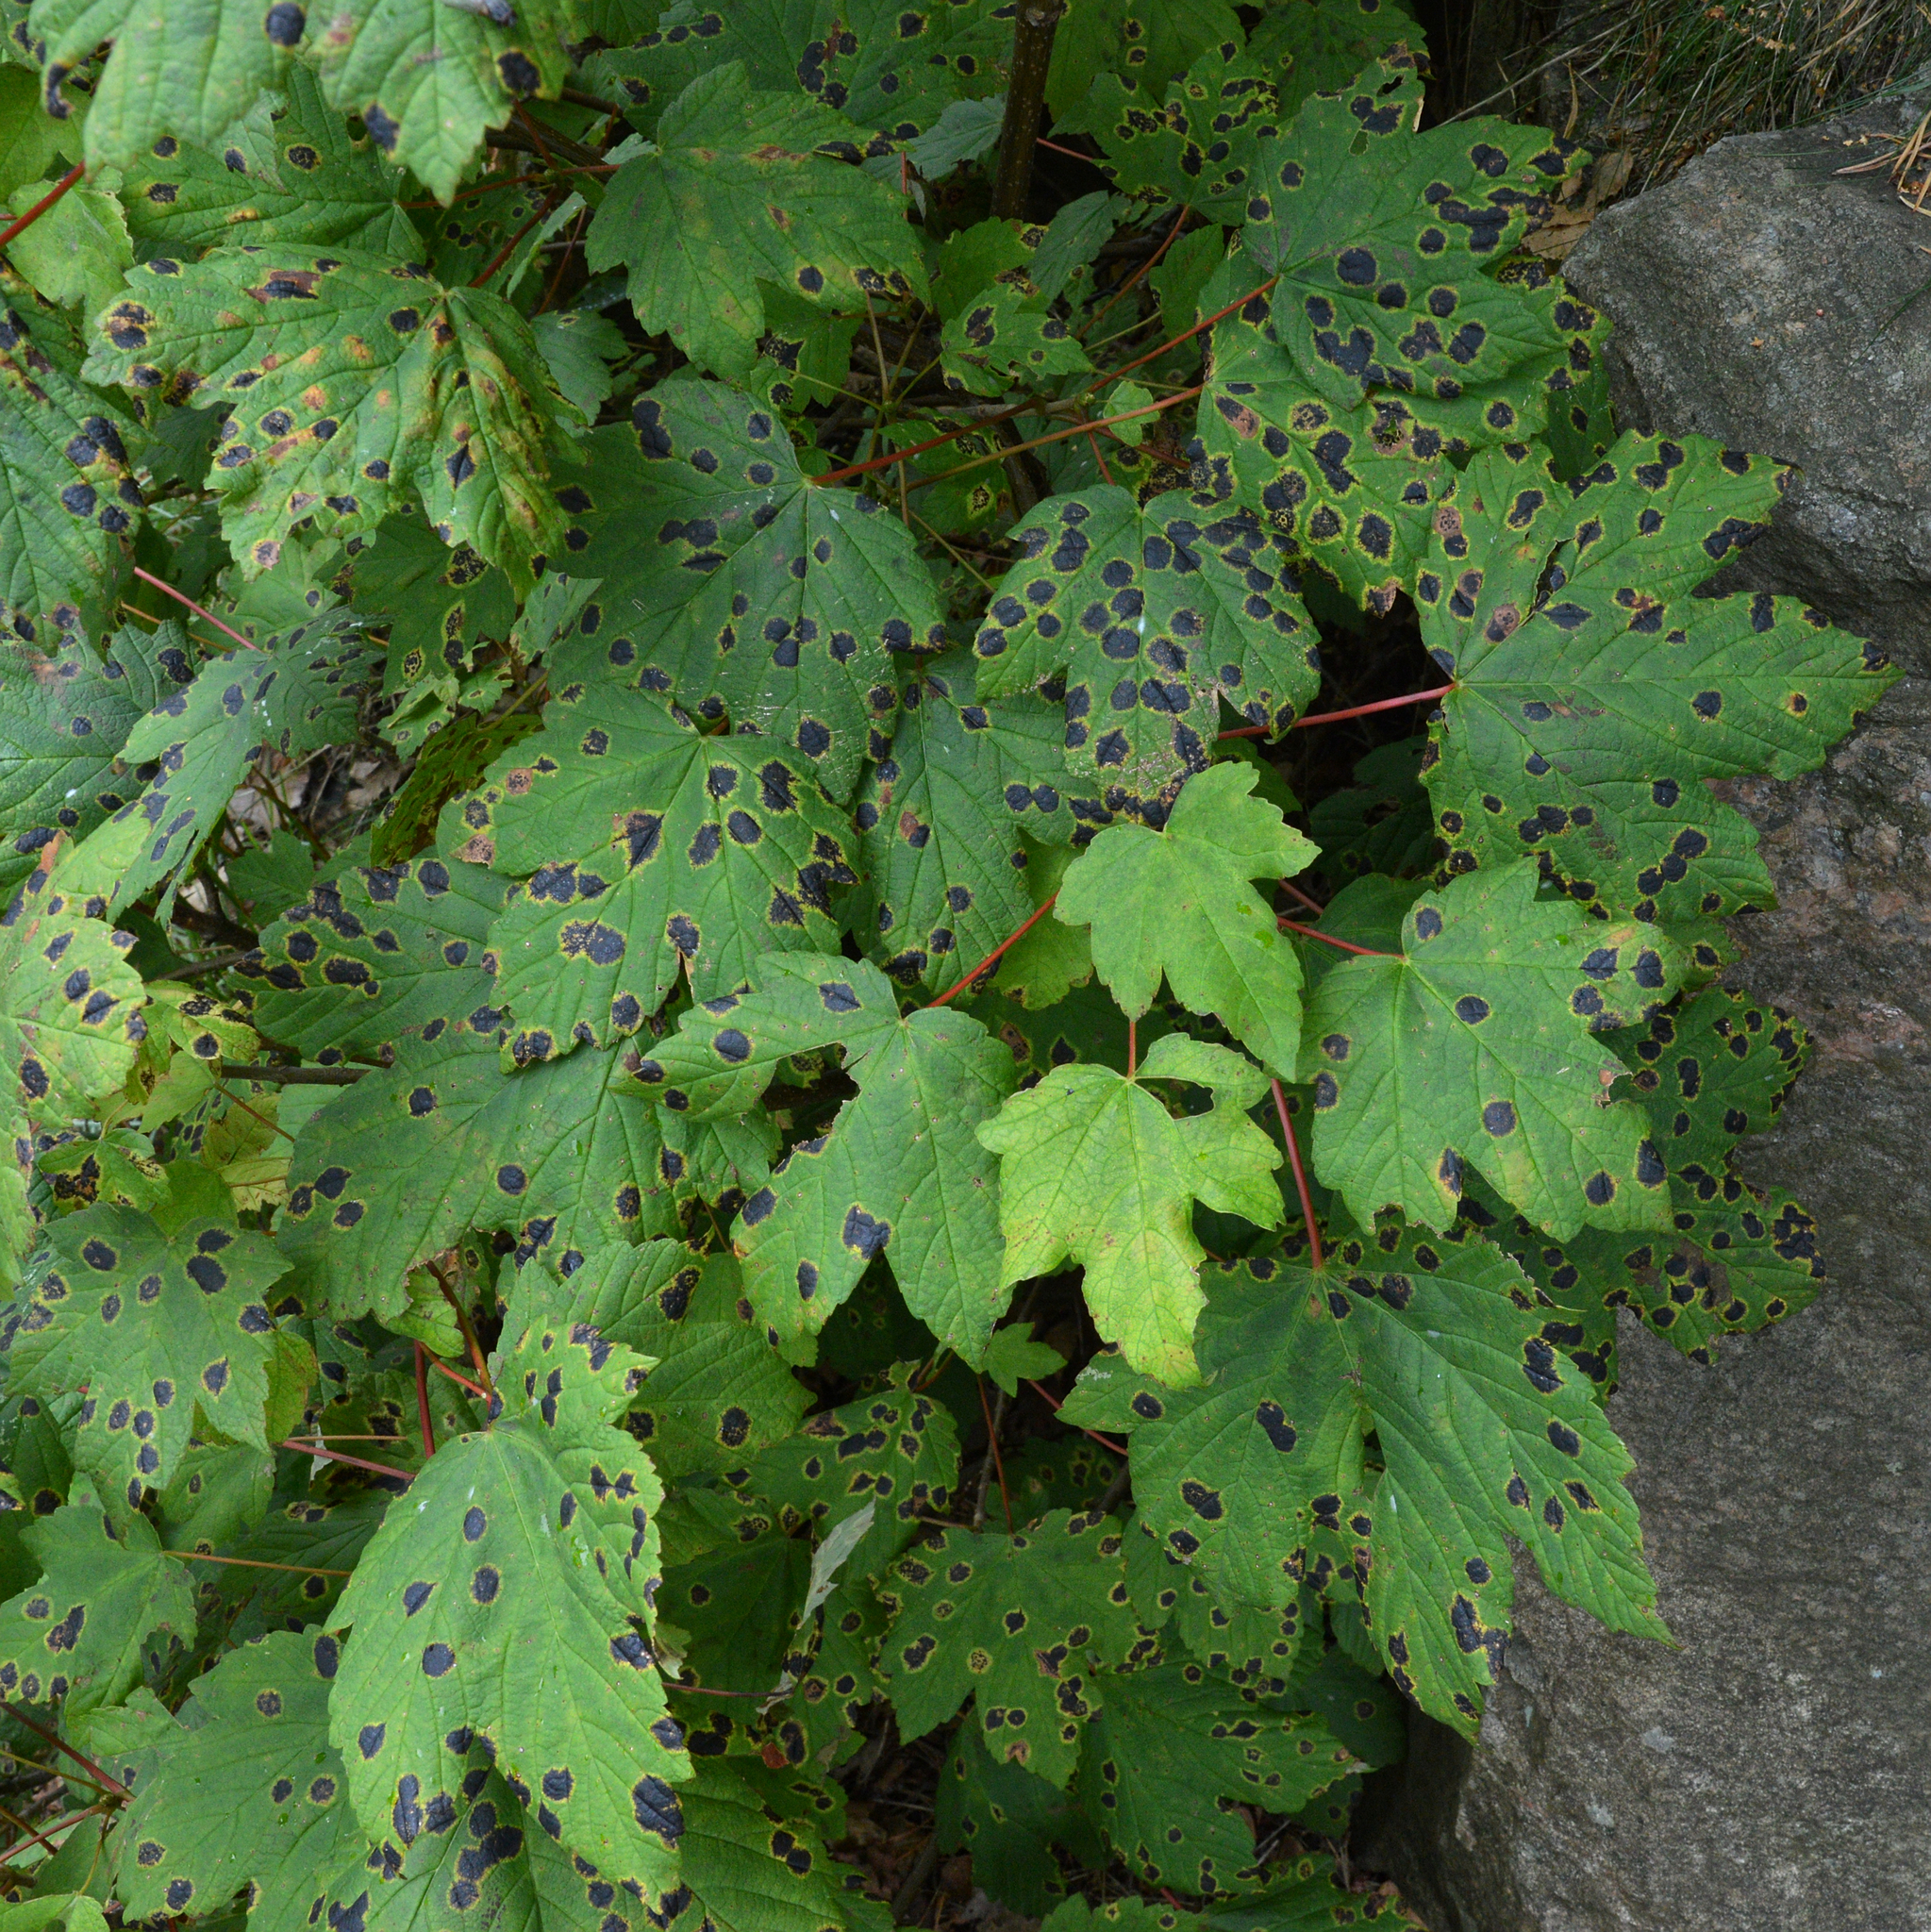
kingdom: Plantae
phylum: Tracheophyta
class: Magnoliopsida
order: Sapindales
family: Sapindaceae
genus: Acer
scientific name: Acer pseudoplatanus
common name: Sycamore
